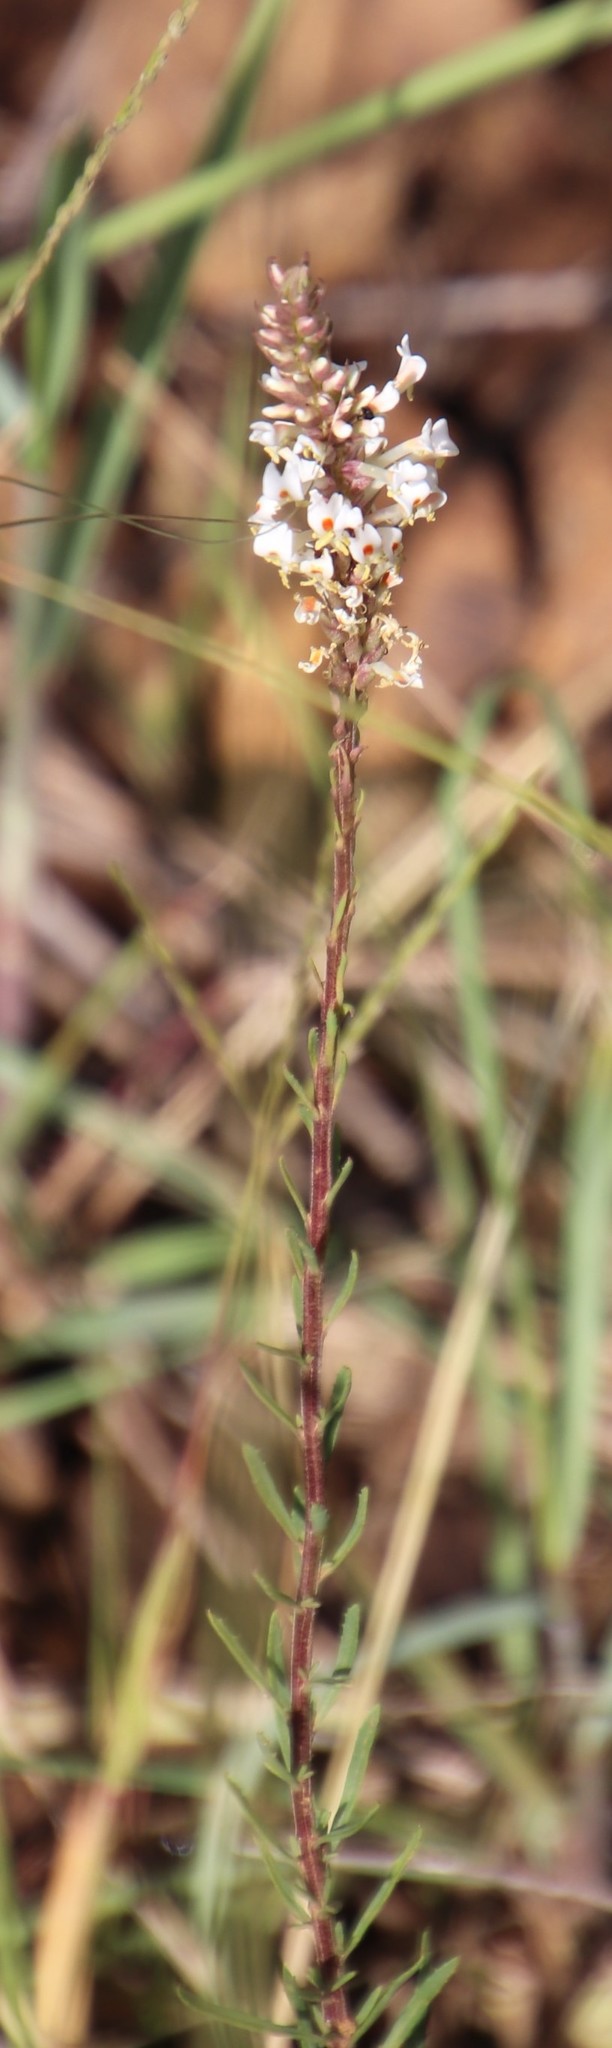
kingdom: Plantae
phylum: Tracheophyta
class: Magnoliopsida
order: Lamiales
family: Scrophulariaceae
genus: Hebenstretia
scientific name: Hebenstretia dura
